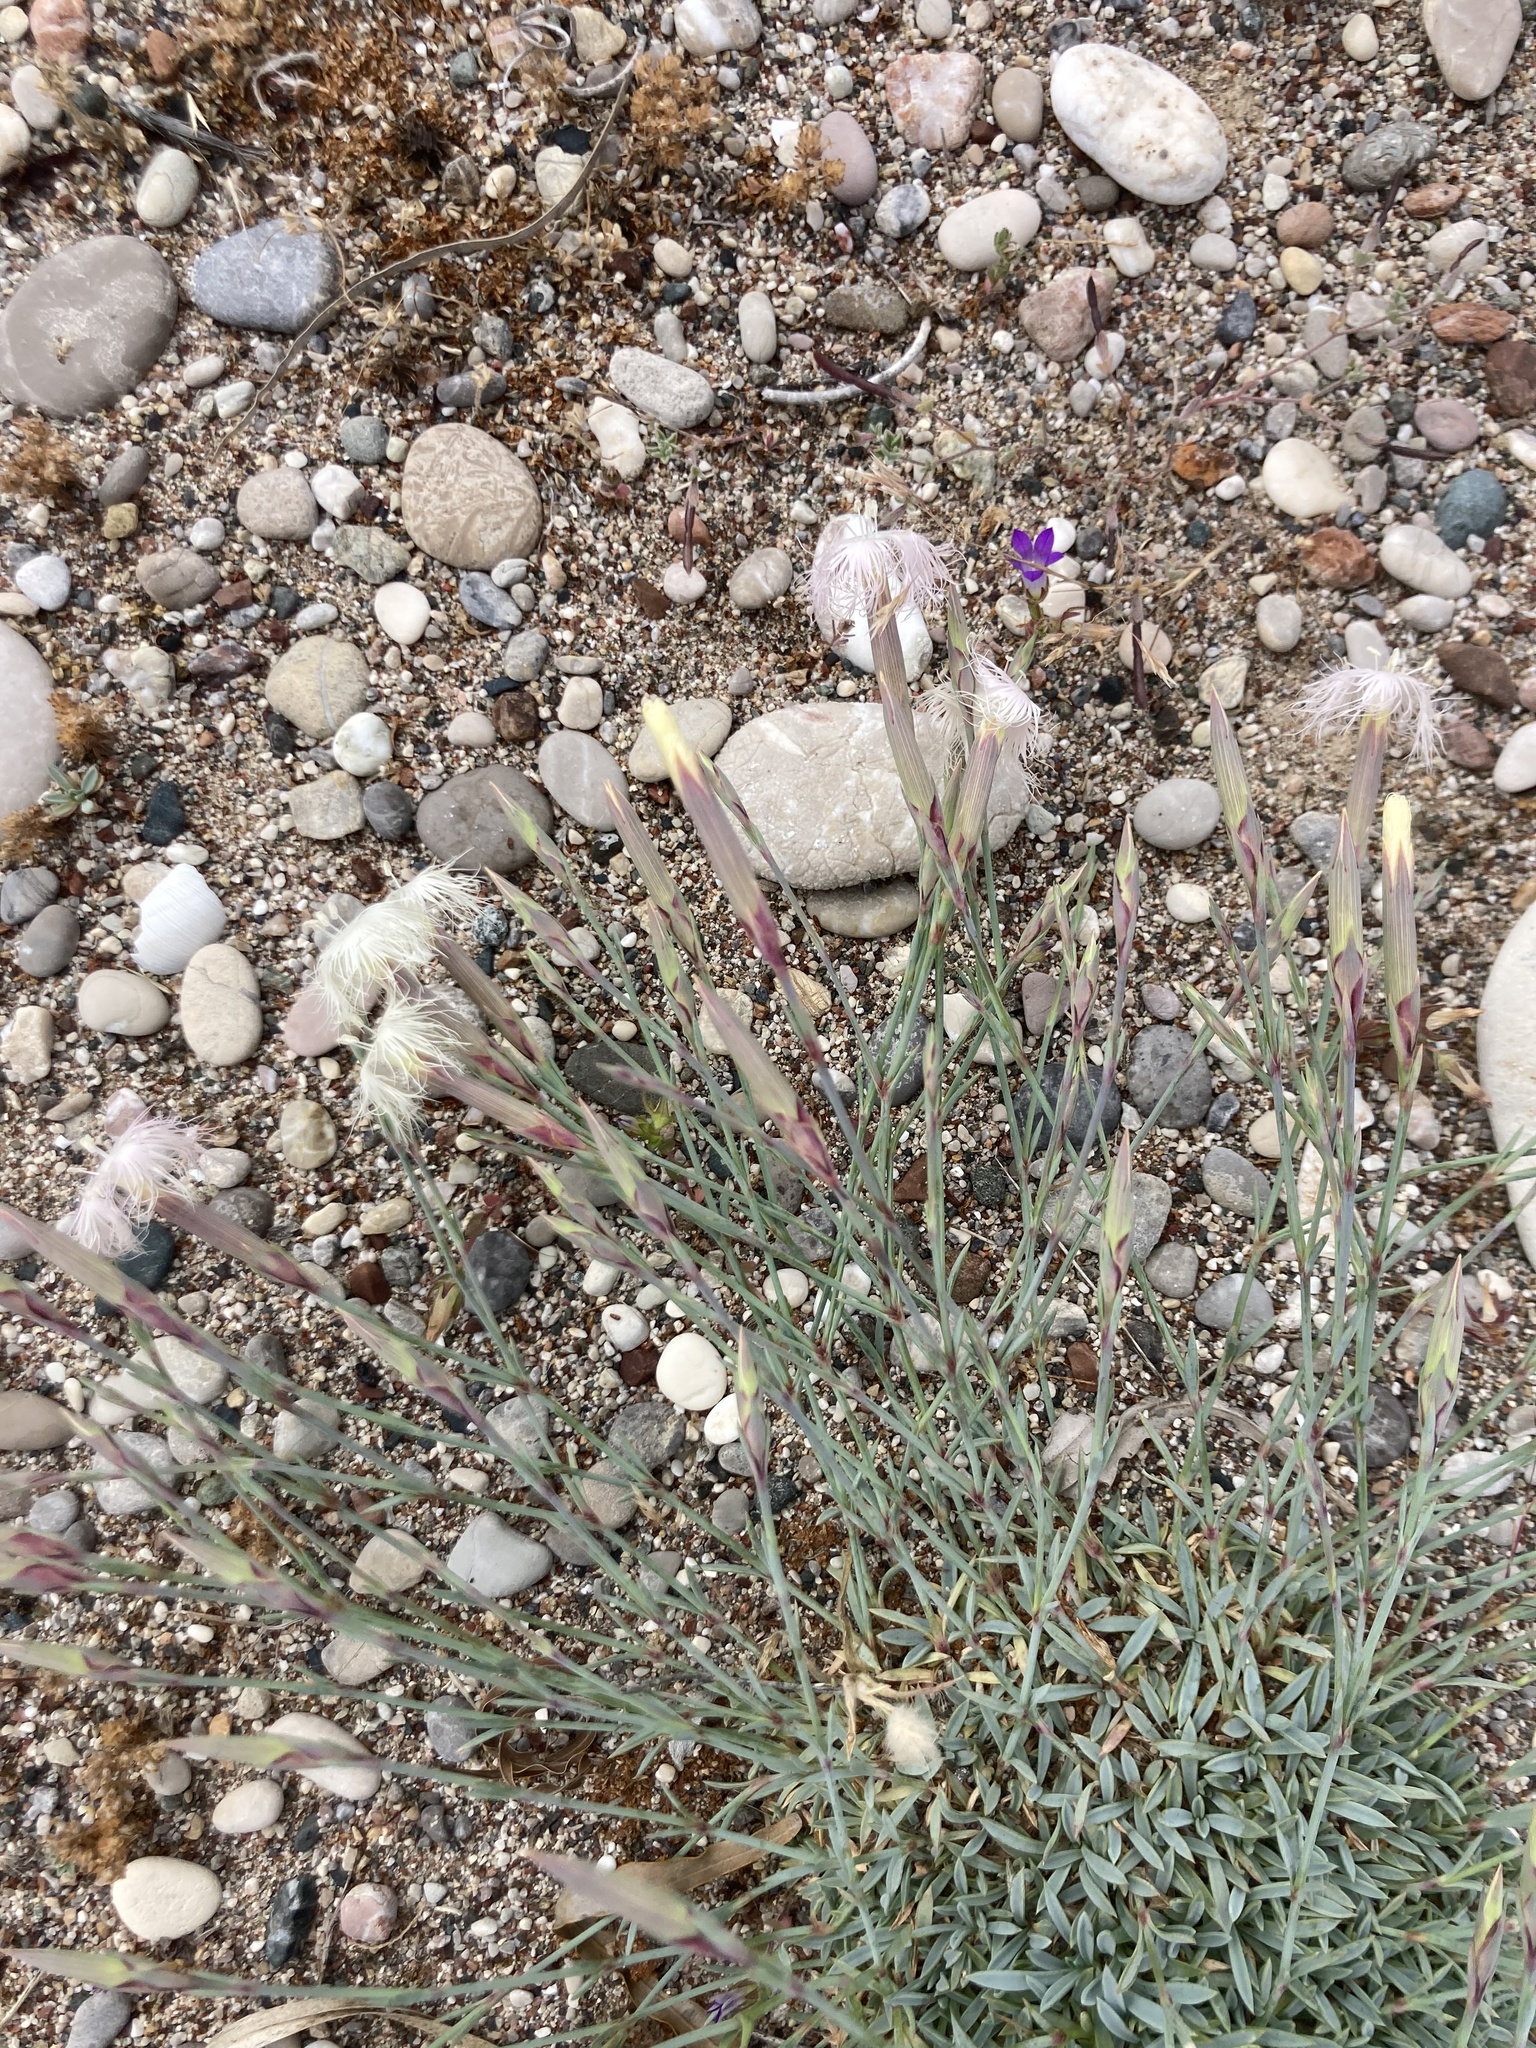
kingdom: Plantae
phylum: Tracheophyta
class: Magnoliopsida
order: Caryophyllales
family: Caryophyllaceae
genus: Dianthus
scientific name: Dianthus crinitus
